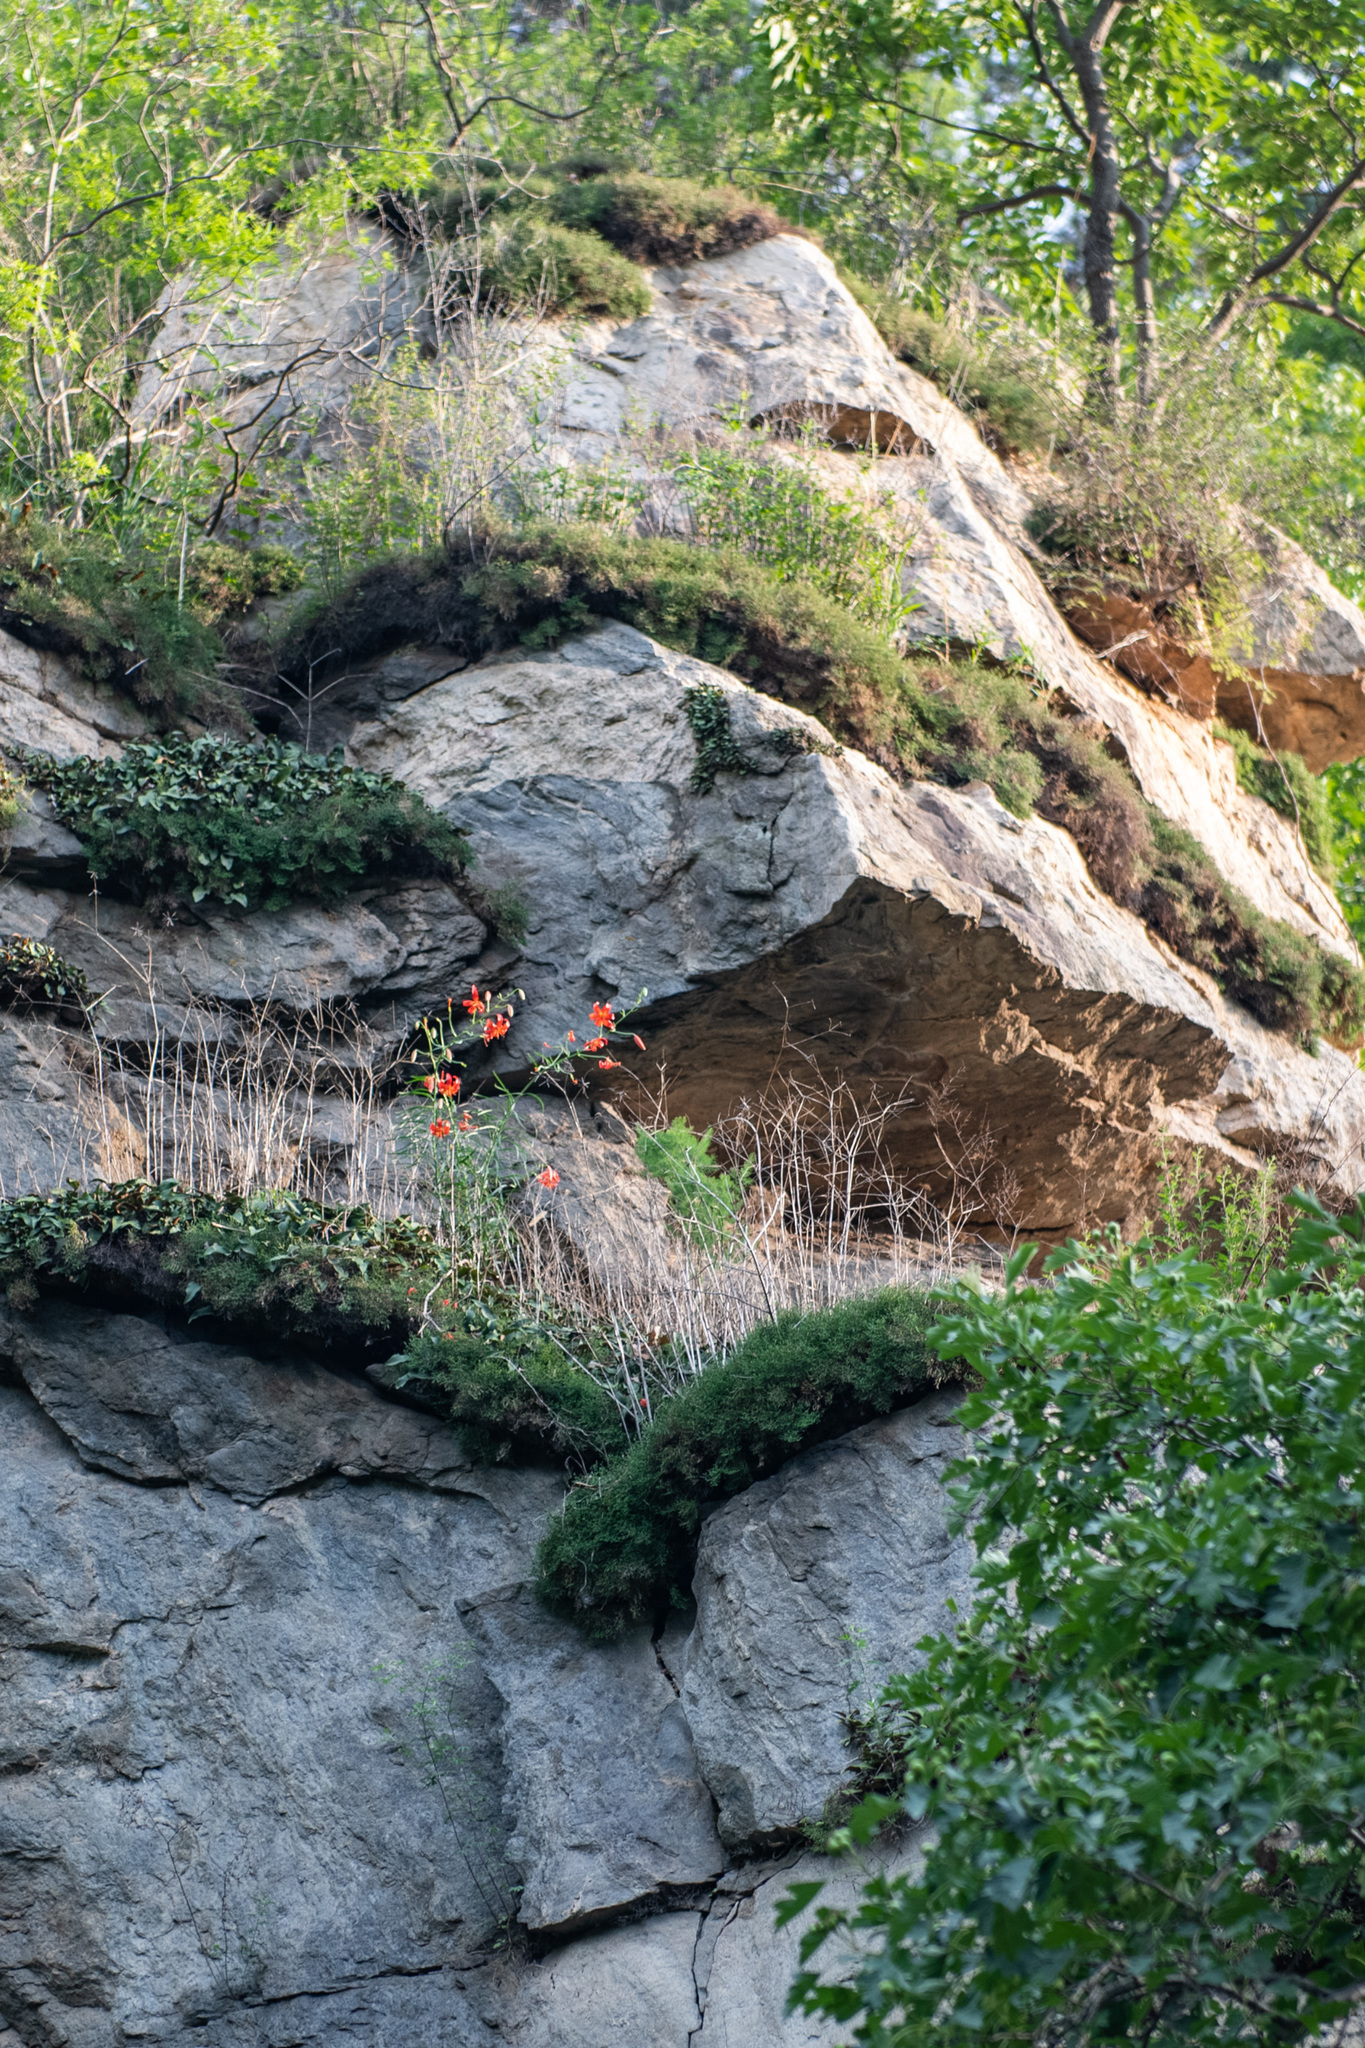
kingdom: Plantae
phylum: Tracheophyta
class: Liliopsida
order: Liliales
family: Liliaceae
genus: Lilium
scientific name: Lilium pumilum
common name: Coral lily
